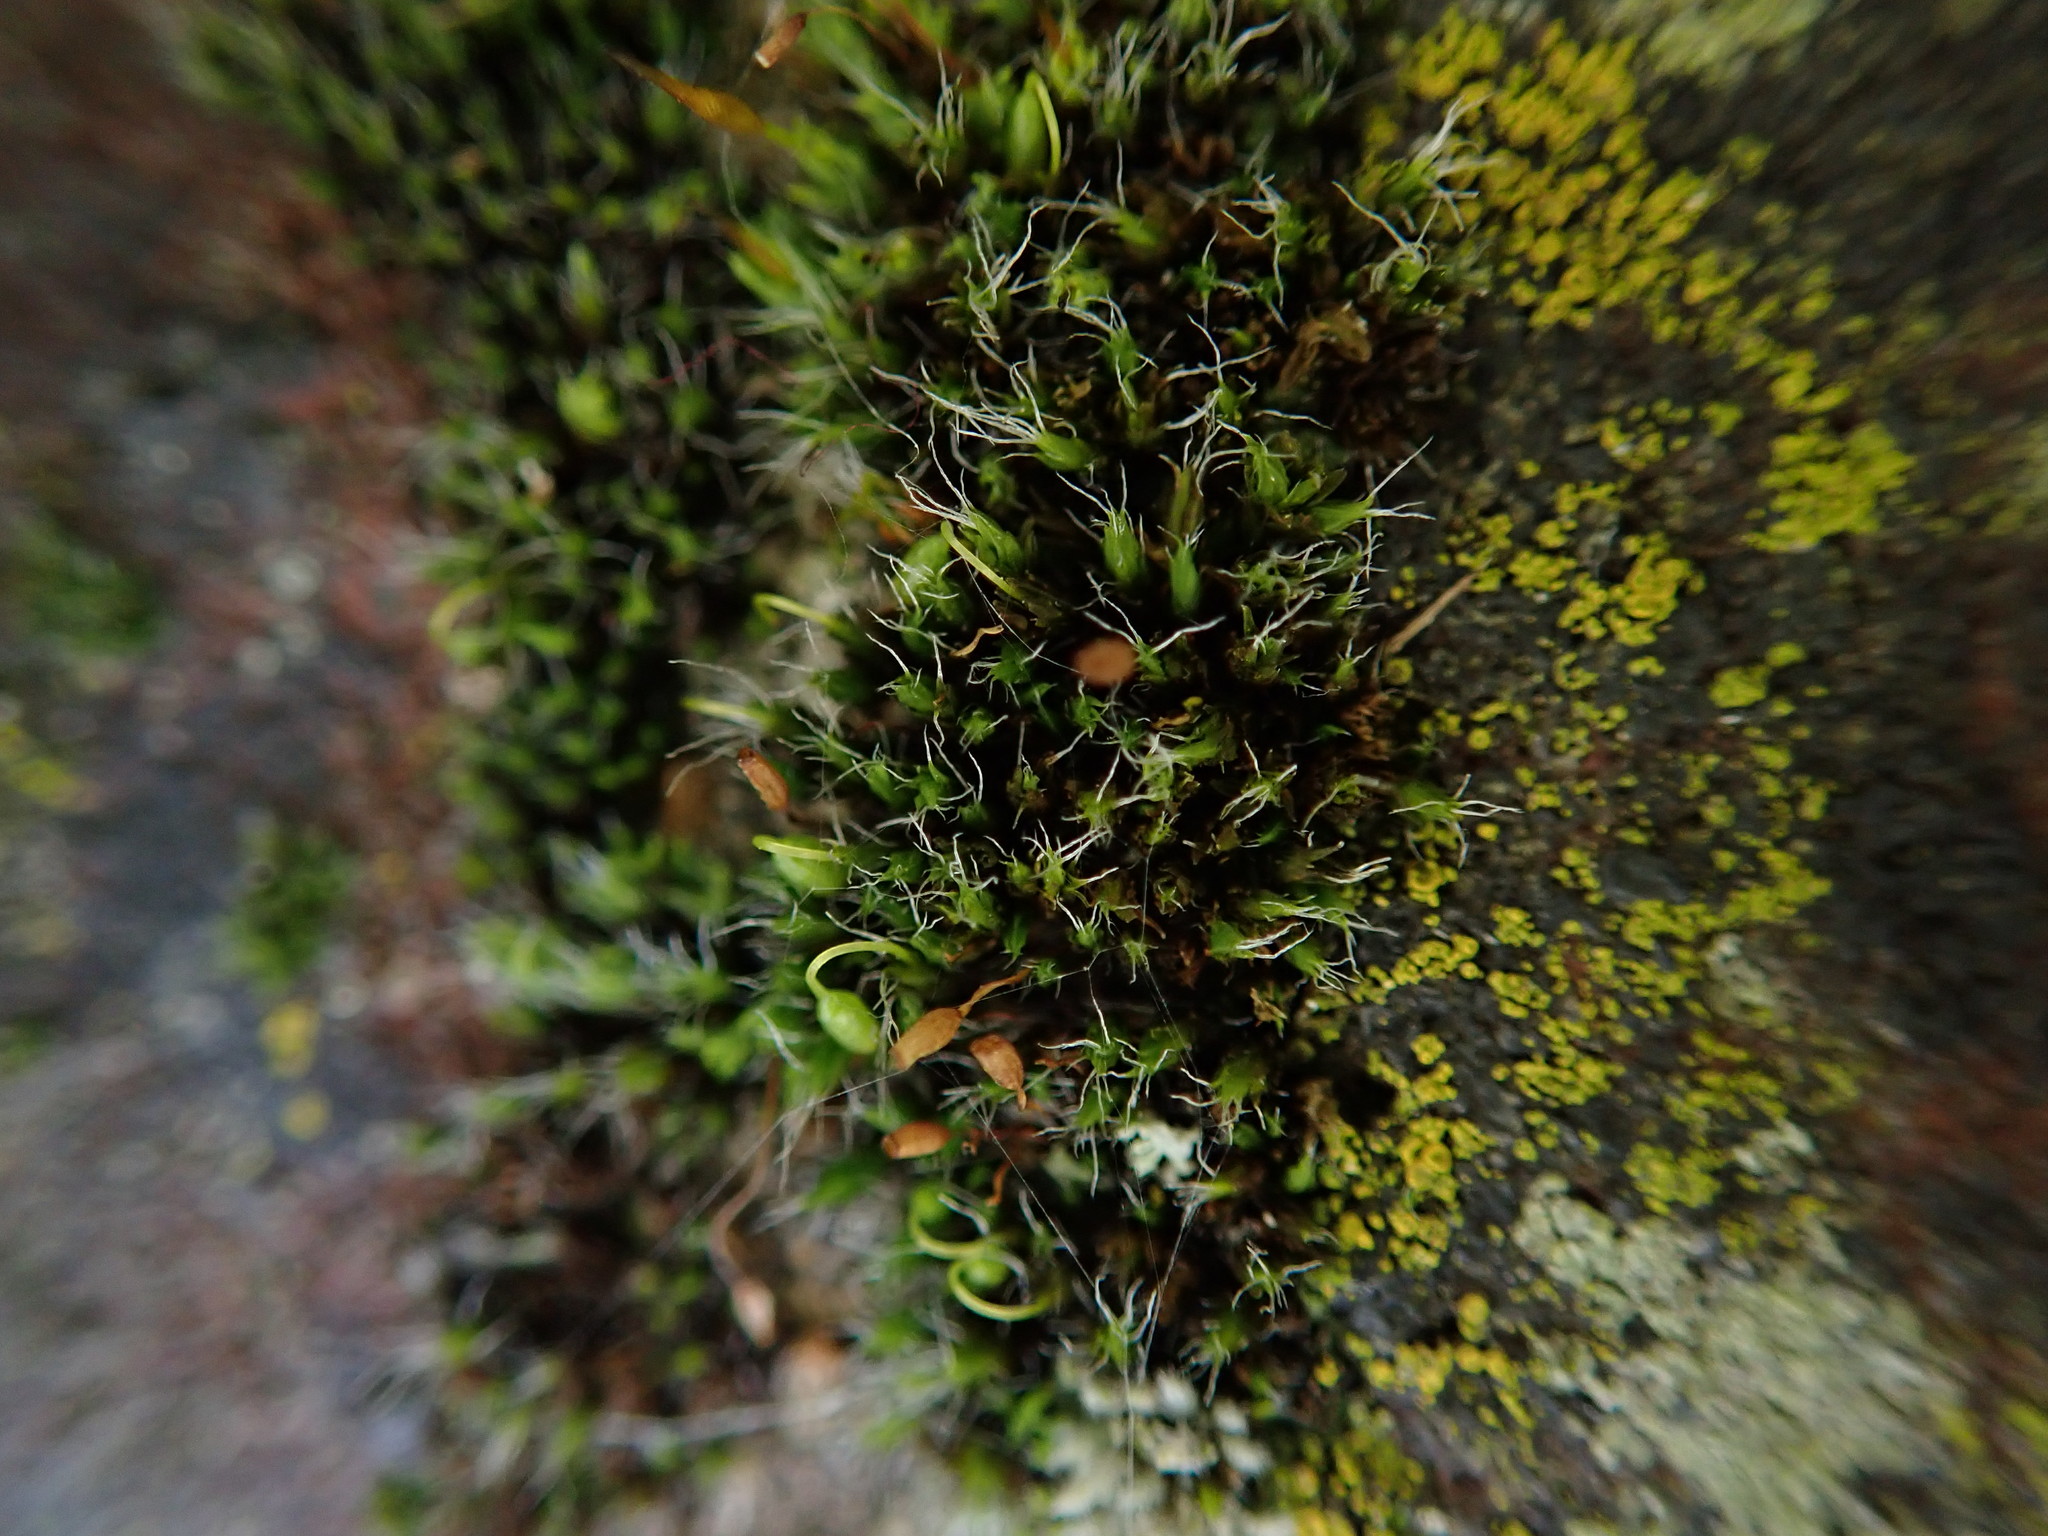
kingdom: Plantae
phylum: Bryophyta
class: Bryopsida
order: Grimmiales
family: Grimmiaceae
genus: Grimmia
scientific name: Grimmia pulvinata
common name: Grey-cushioned grimmia
